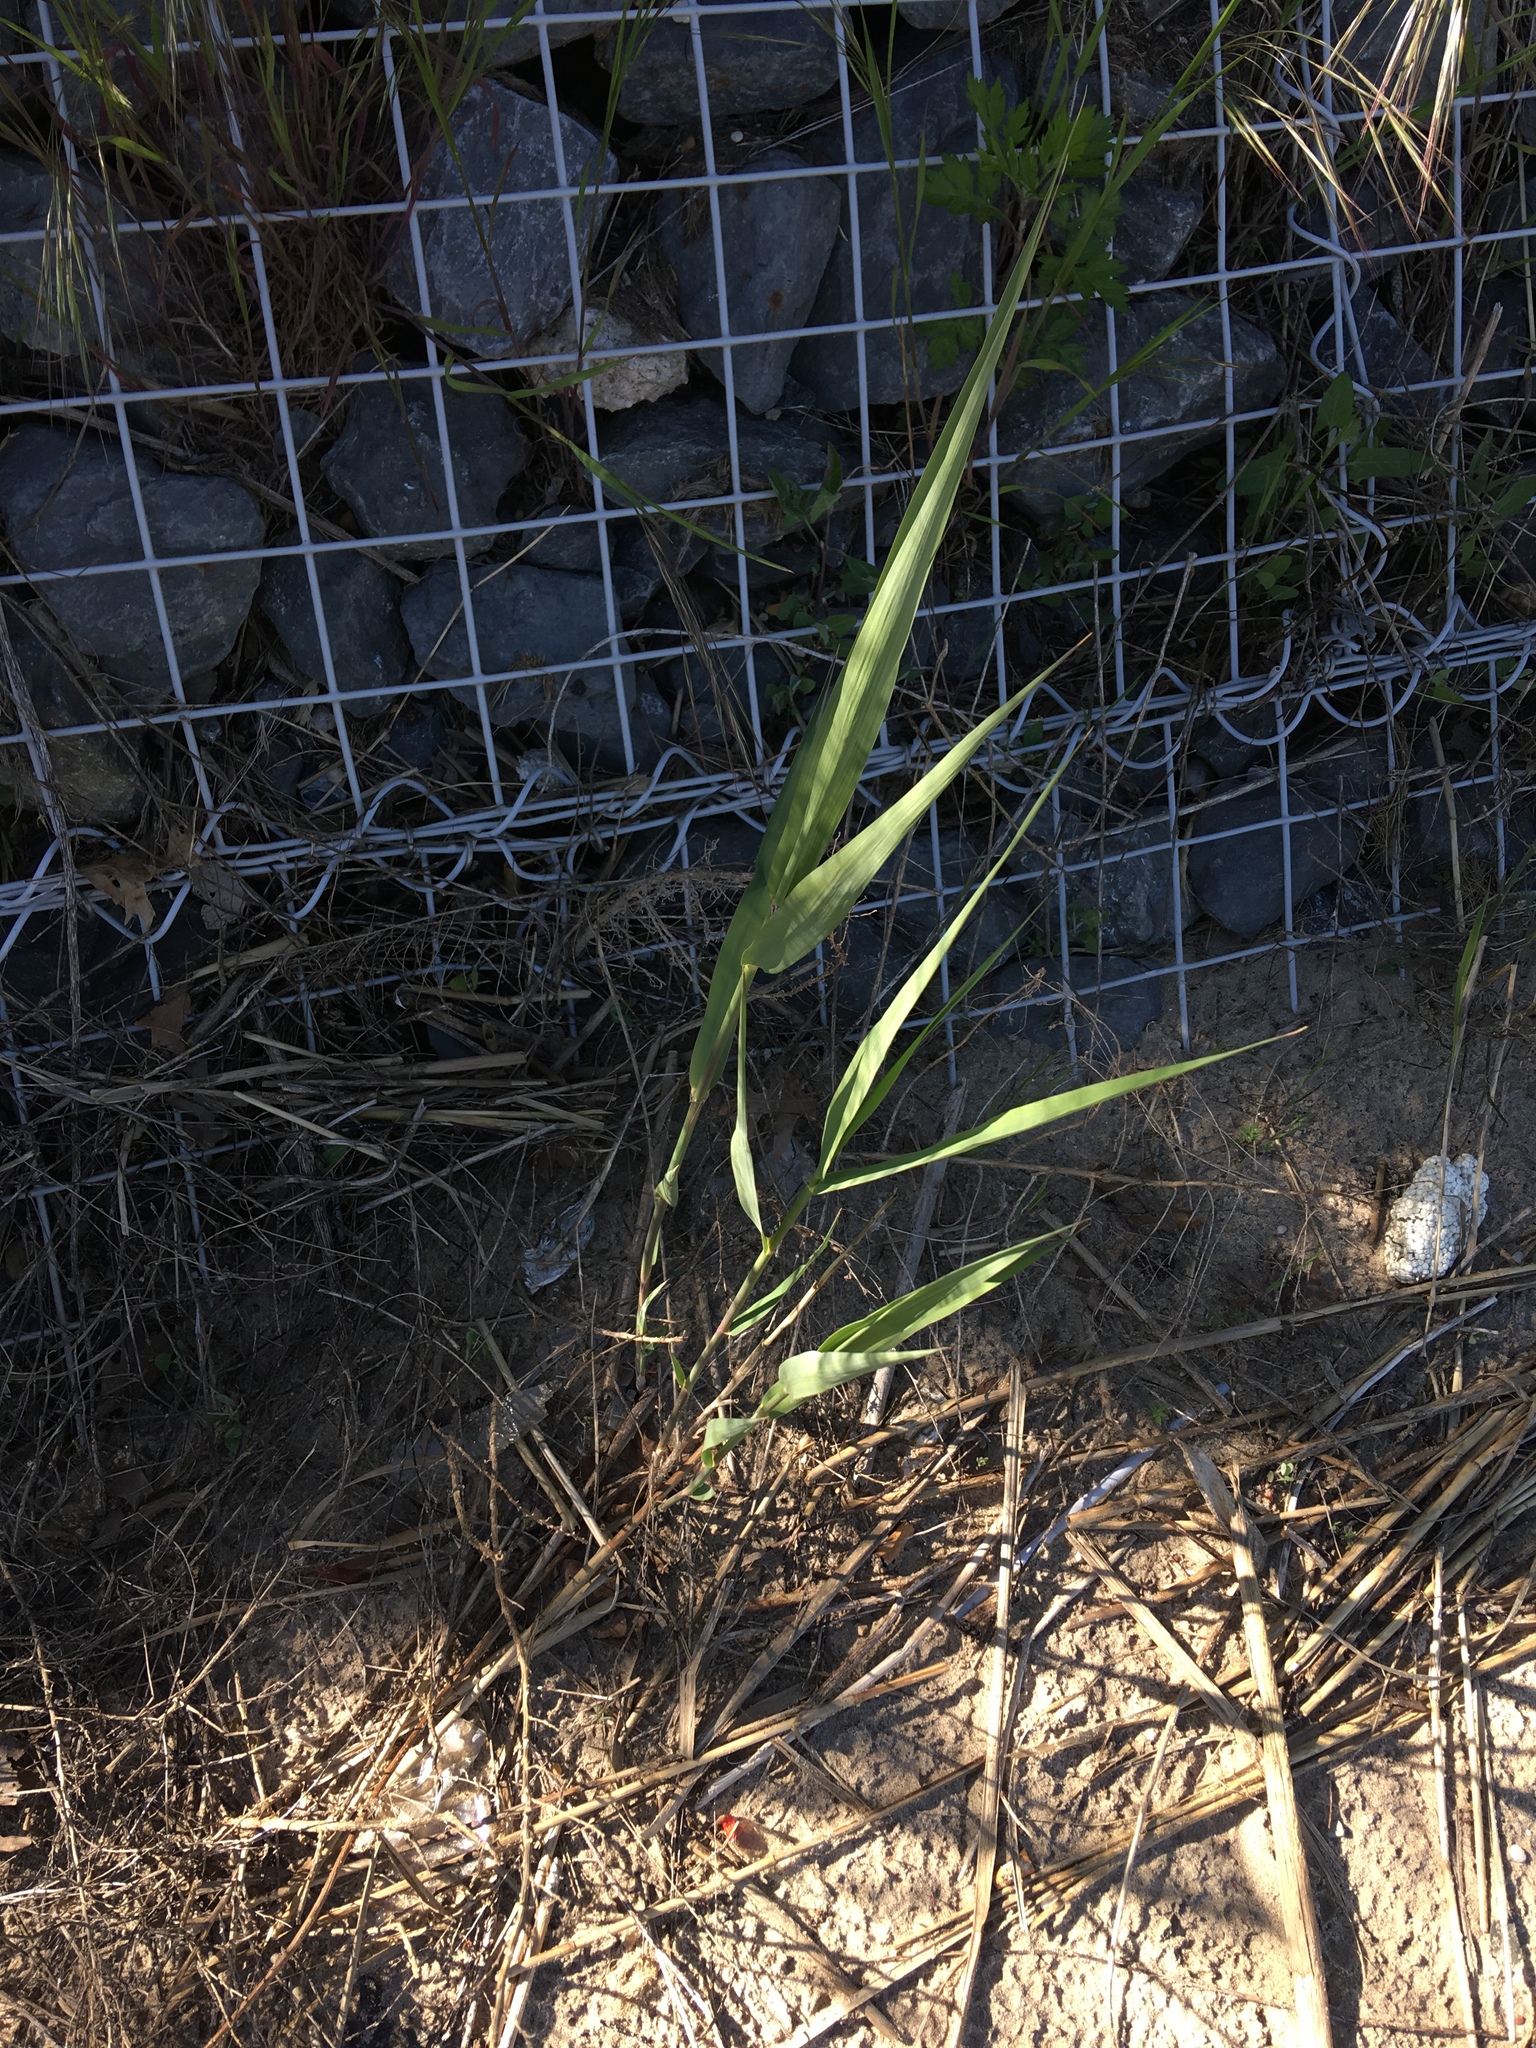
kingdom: Plantae
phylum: Tracheophyta
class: Liliopsida
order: Poales
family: Poaceae
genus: Phragmites
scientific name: Phragmites australis
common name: Common reed
